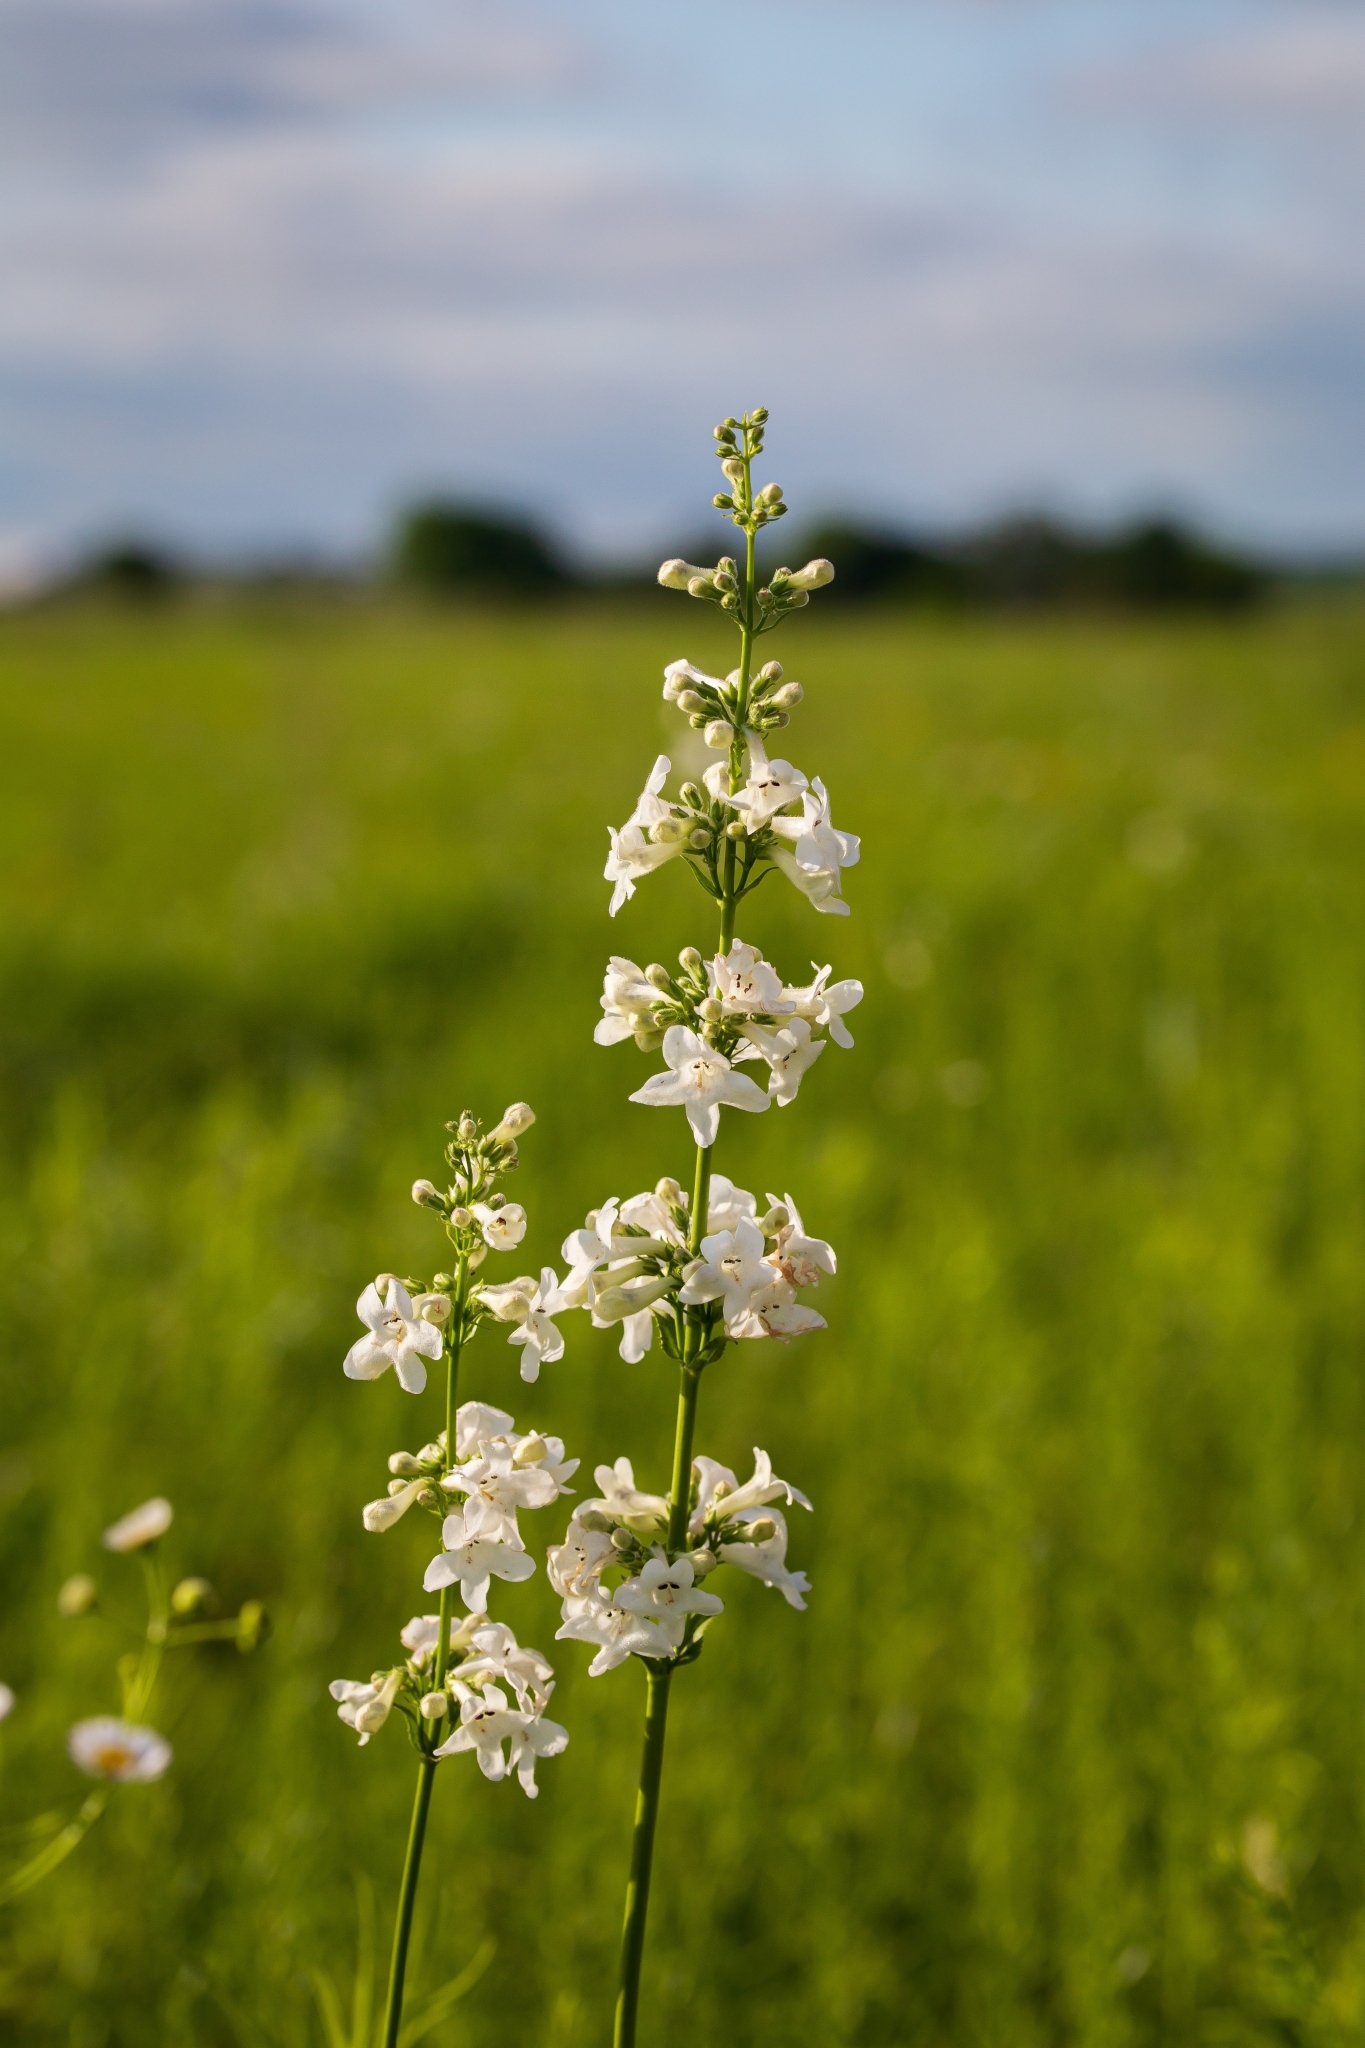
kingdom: Plantae
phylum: Tracheophyta
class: Magnoliopsida
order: Lamiales
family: Plantaginaceae
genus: Penstemon
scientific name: Penstemon tubaeflorus
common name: White wand beardtongue
